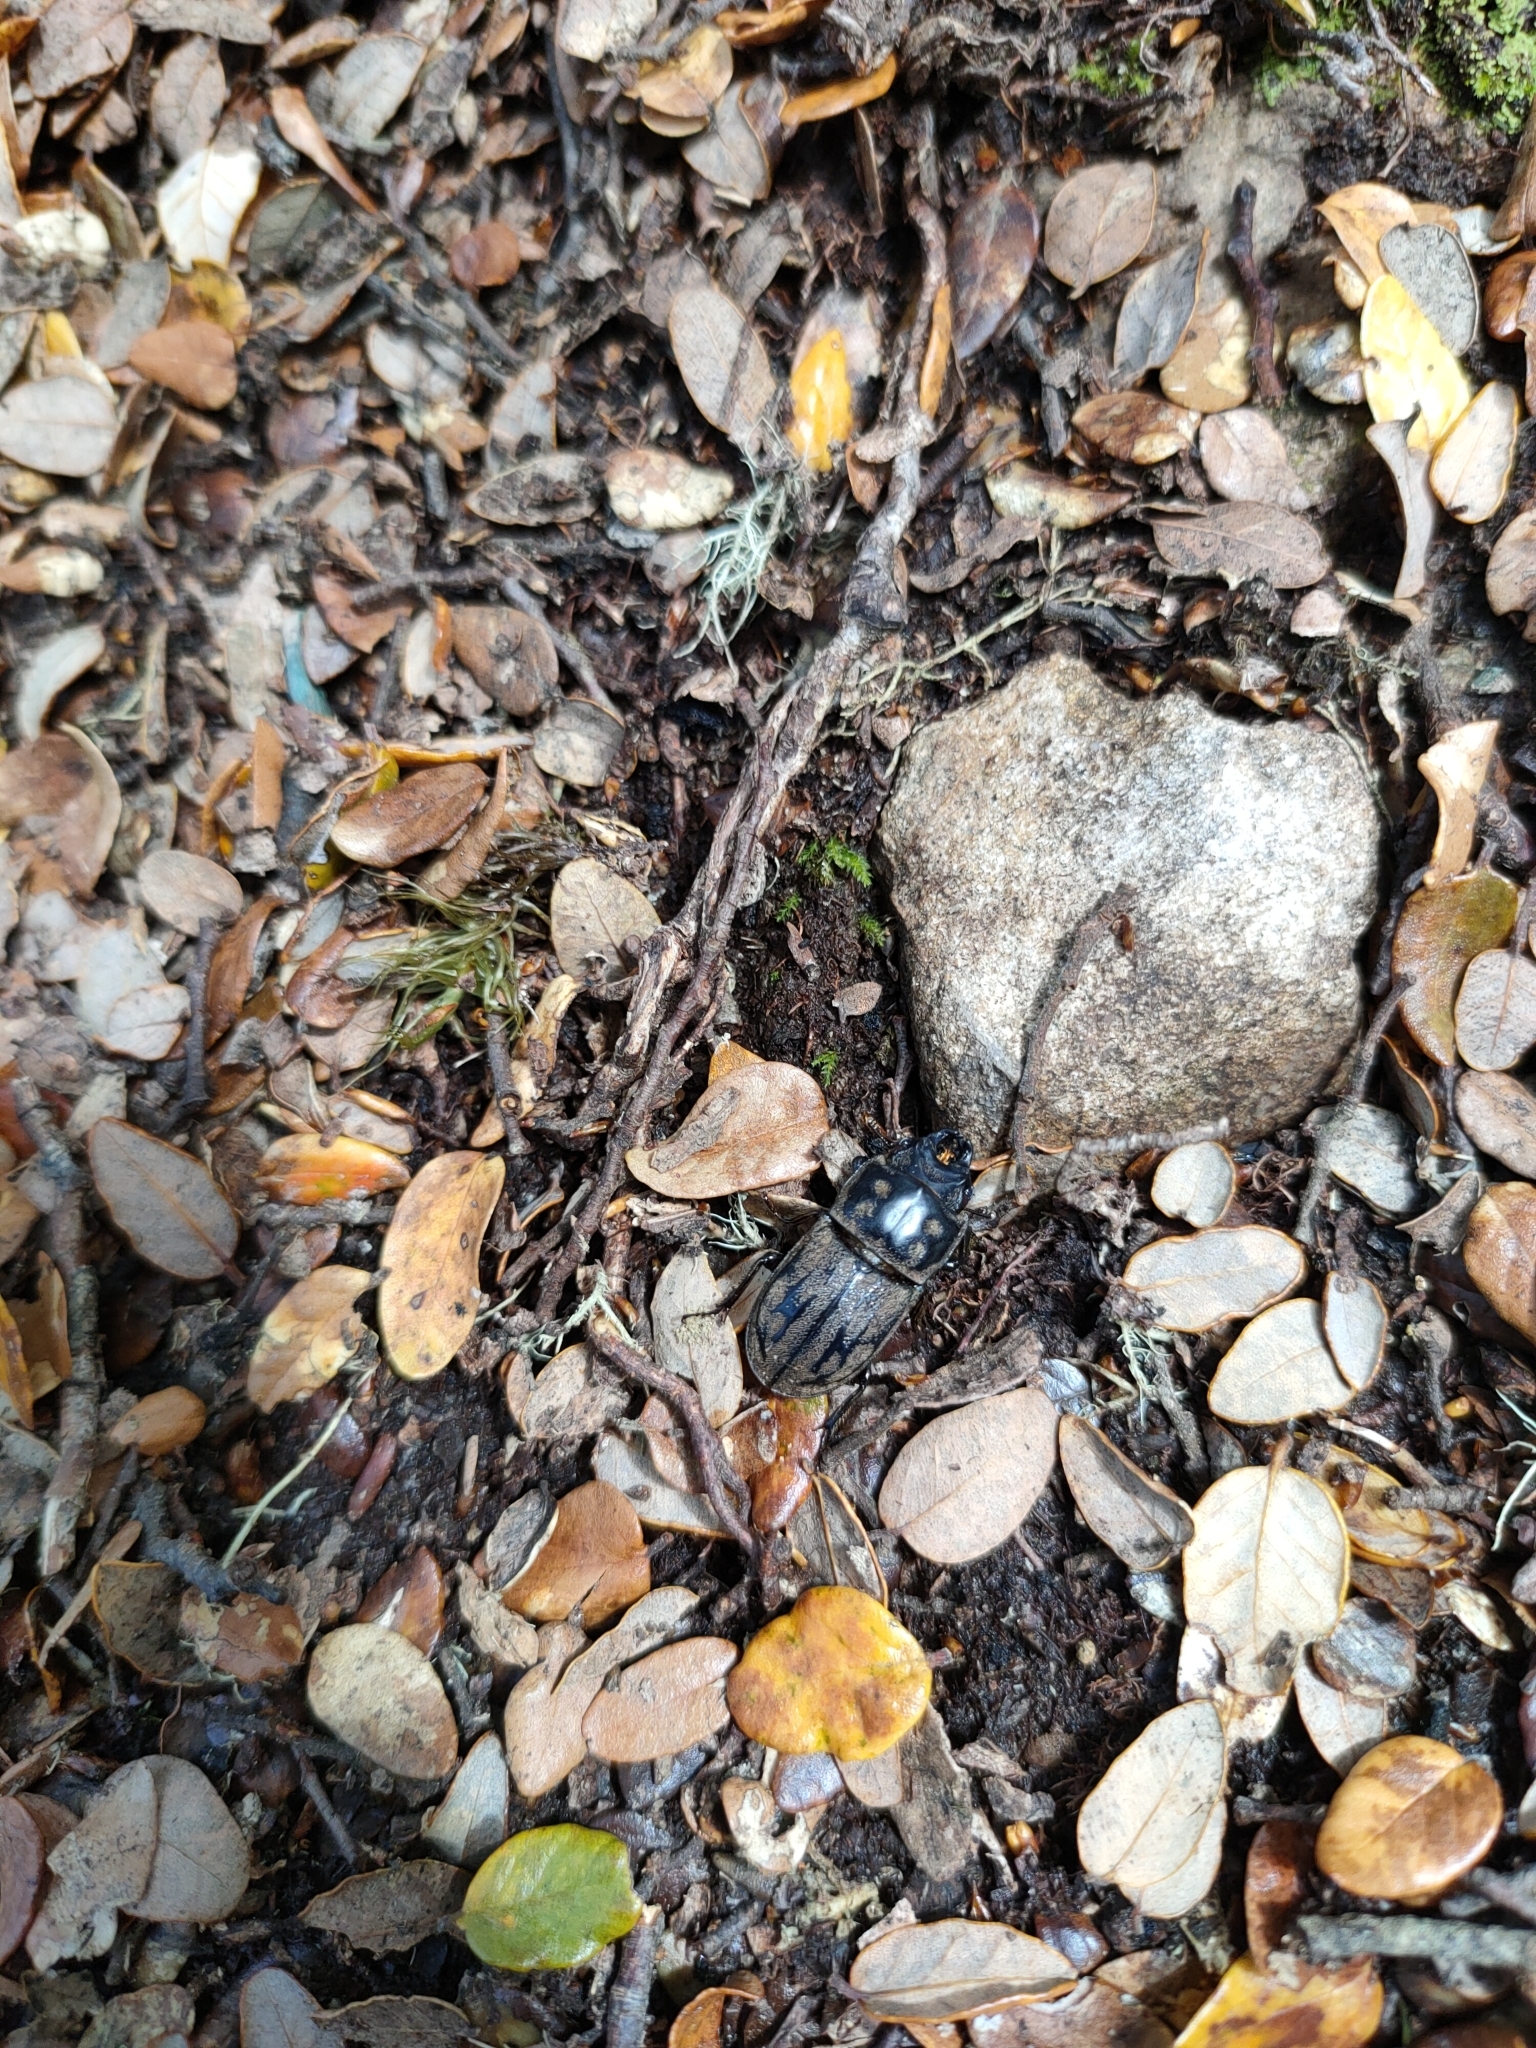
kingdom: Animalia
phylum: Arthropoda
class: Insecta
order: Coleoptera
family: Lucanidae
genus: Paralissotes
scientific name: Paralissotes reticulatus
